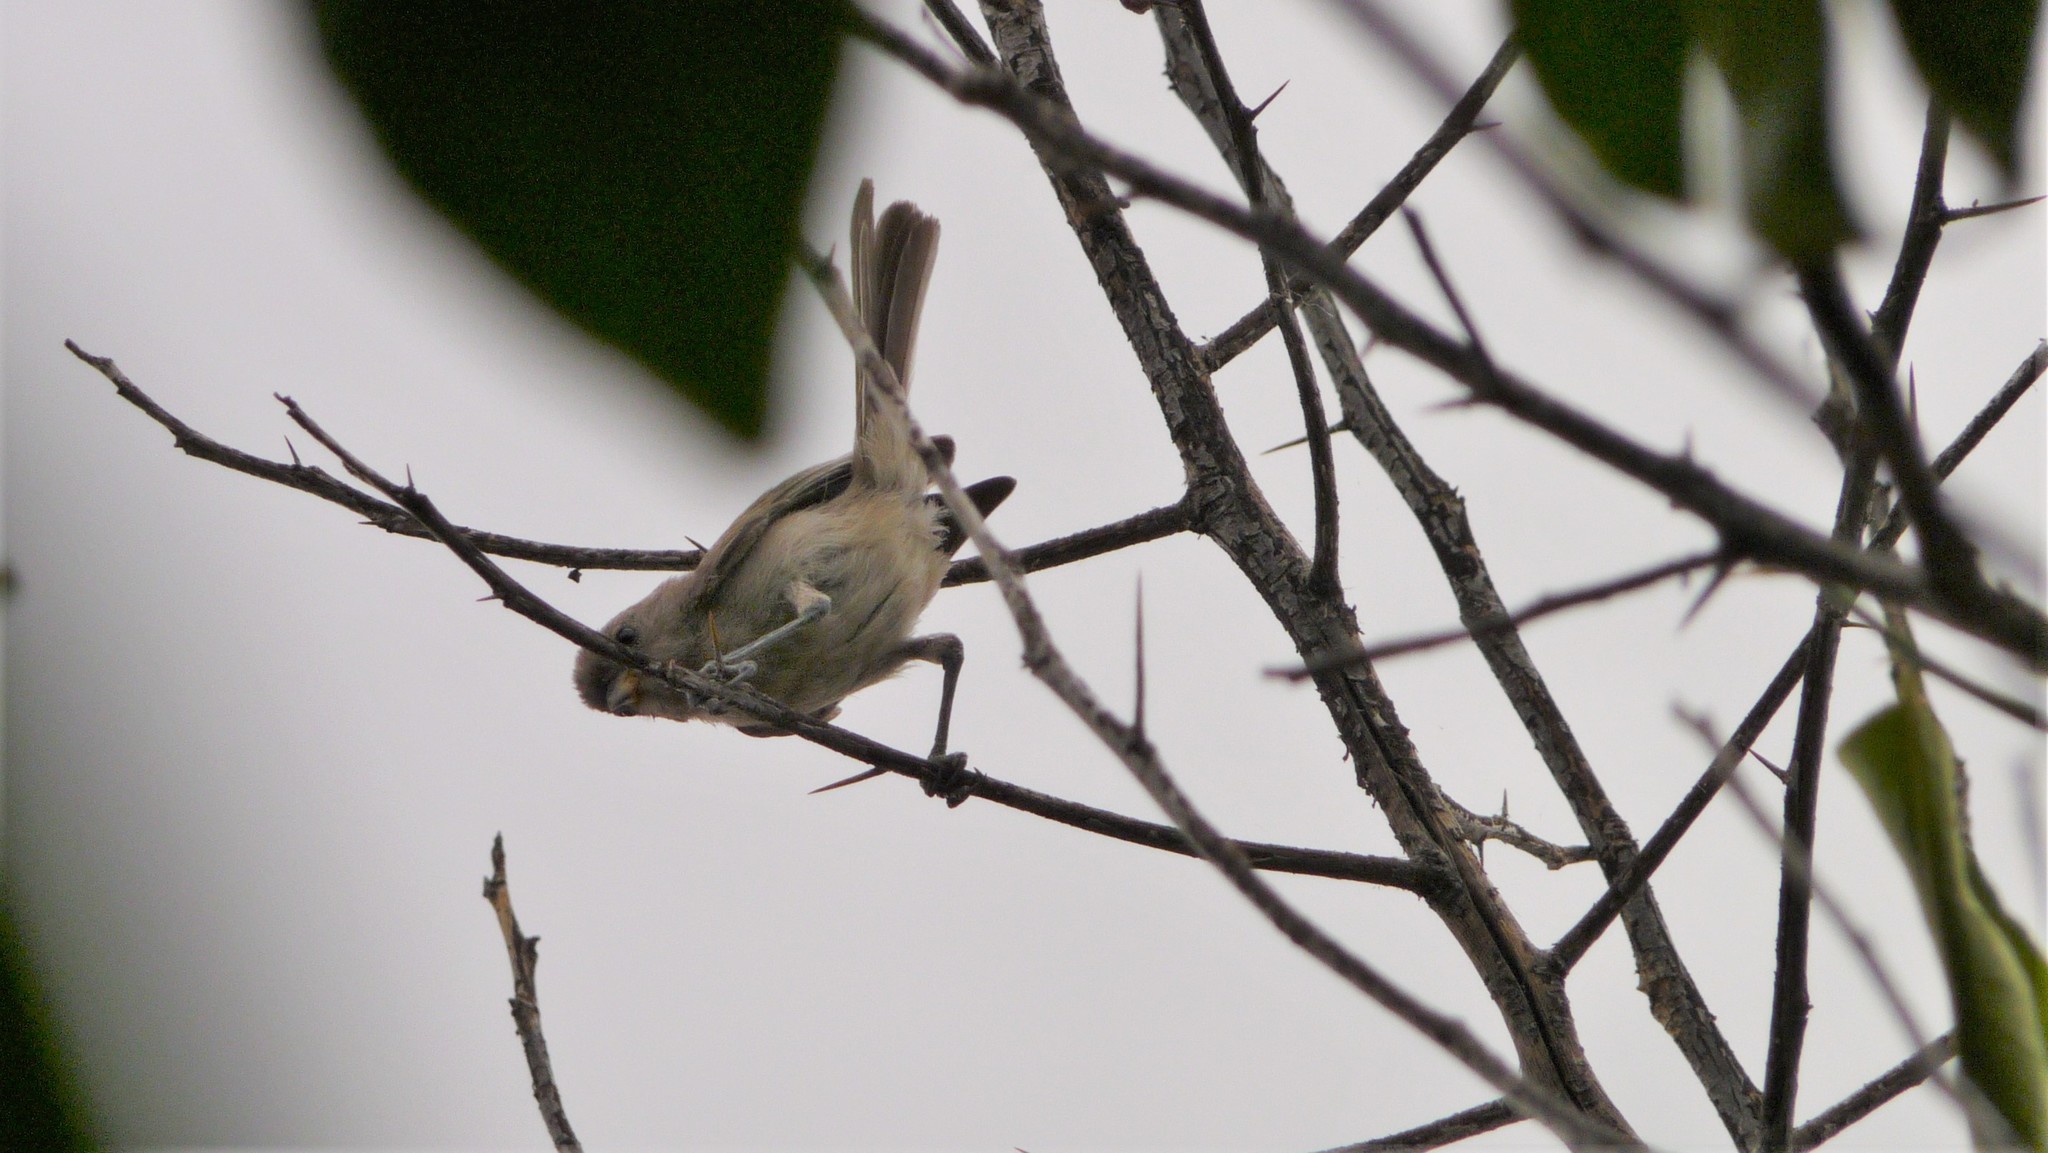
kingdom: Animalia
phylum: Chordata
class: Aves
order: Passeriformes
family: Remizidae
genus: Auriparus
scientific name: Auriparus flaviceps
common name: Verdin
